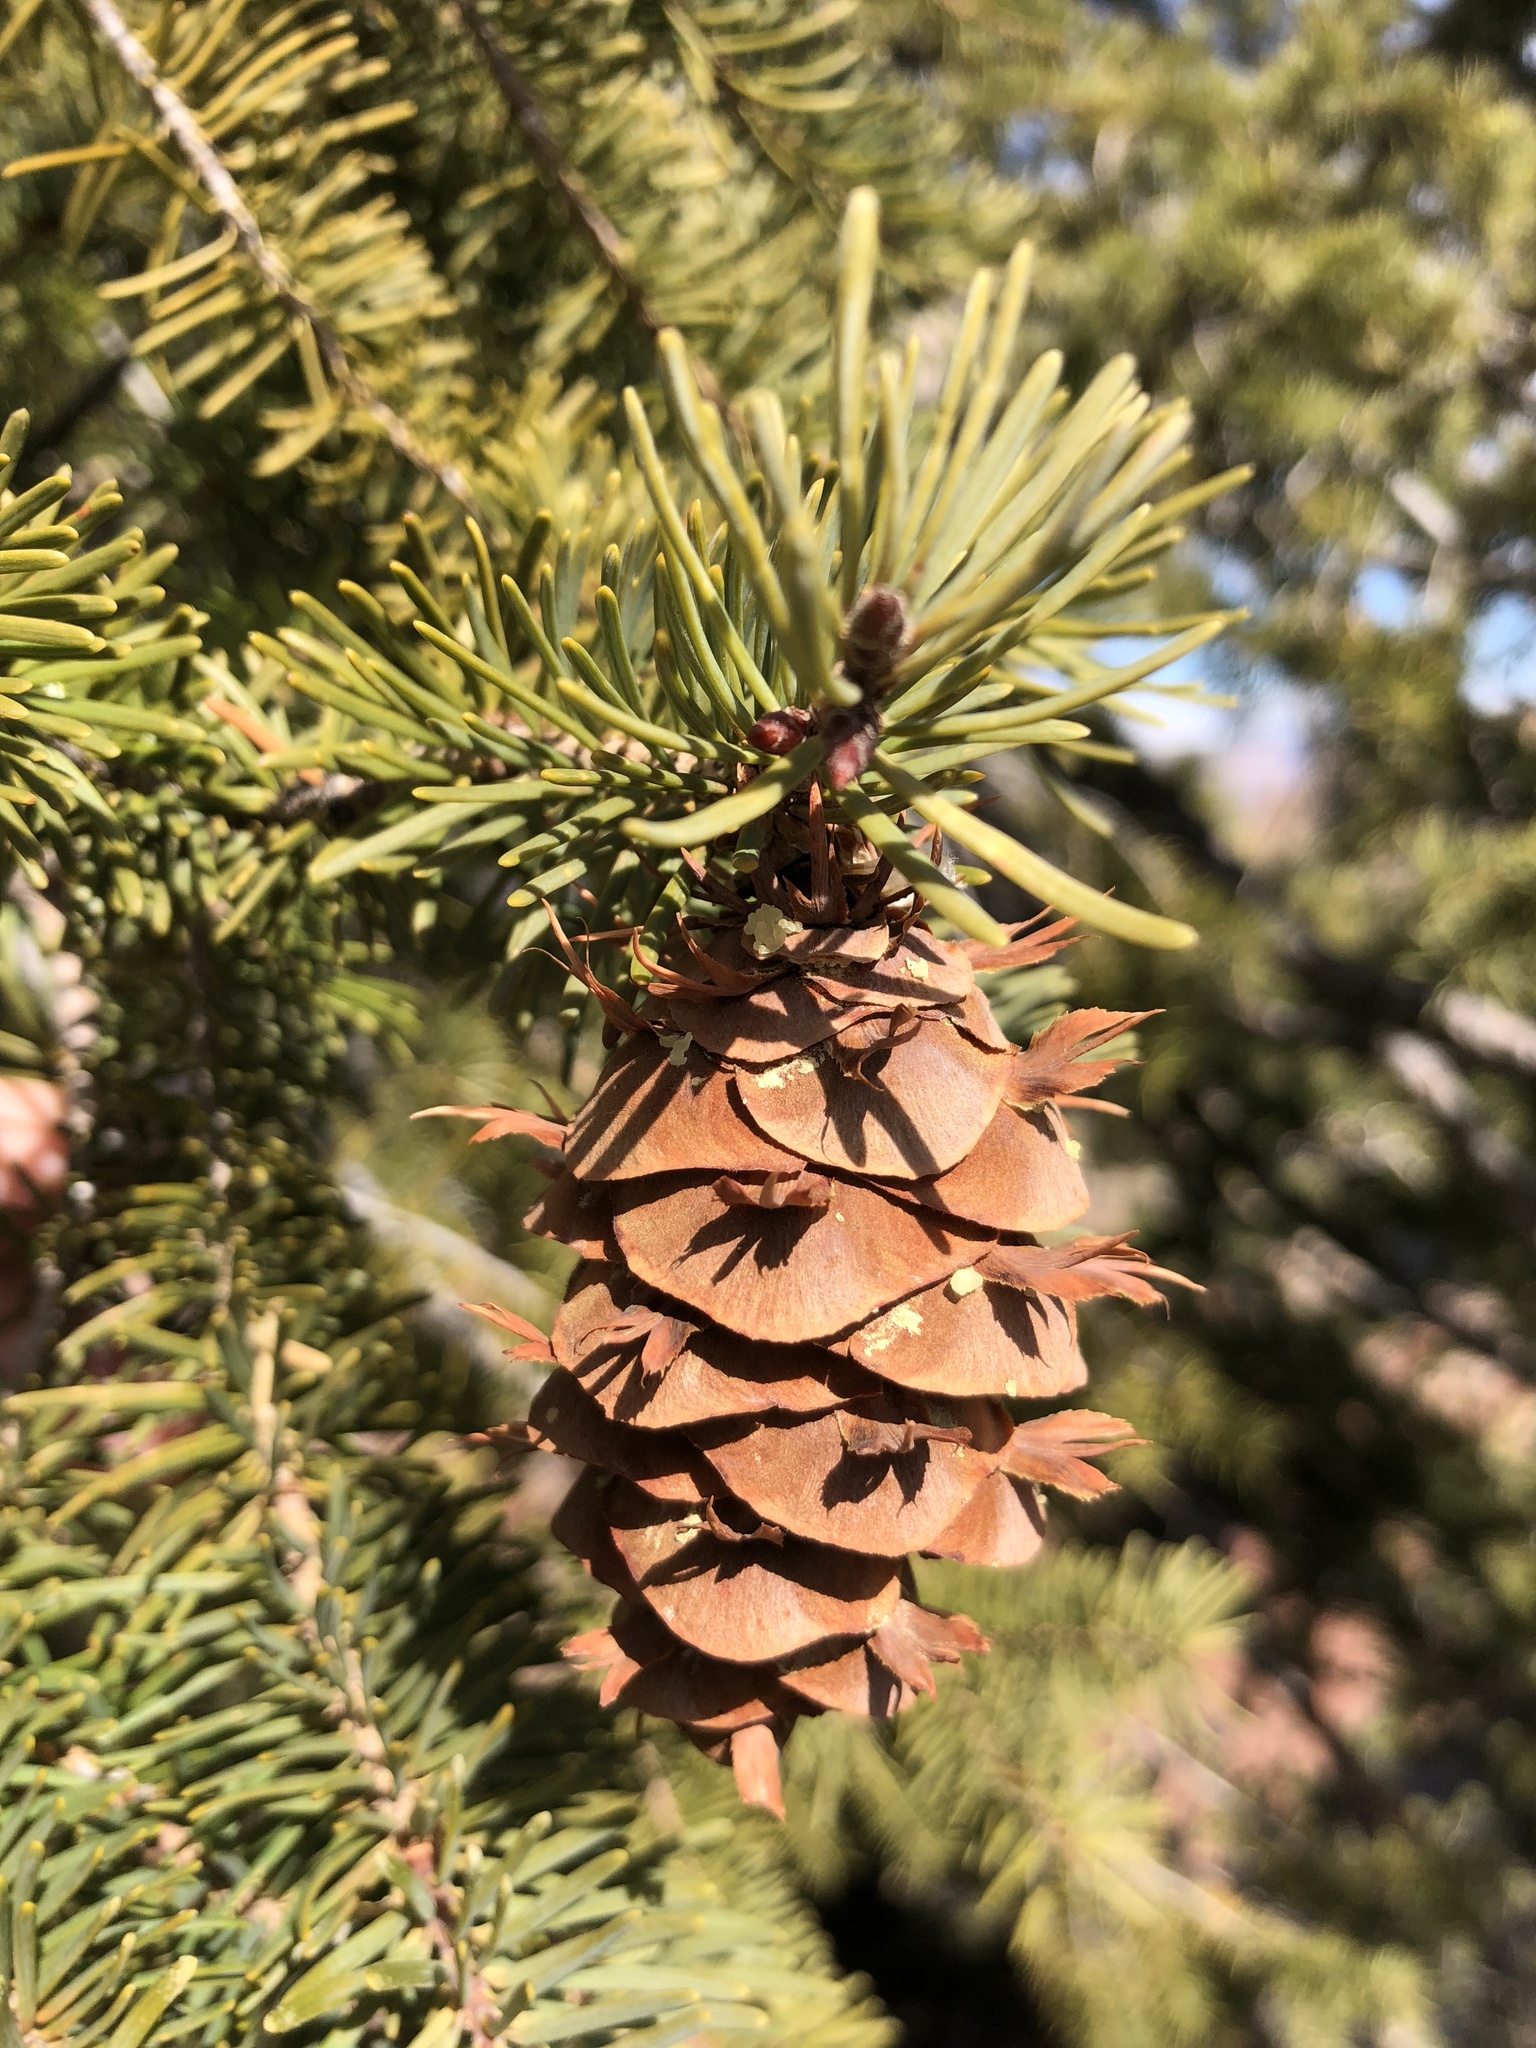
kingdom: Plantae
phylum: Tracheophyta
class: Pinopsida
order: Pinales
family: Pinaceae
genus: Pseudotsuga
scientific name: Pseudotsuga menziesii
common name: Douglas fir
